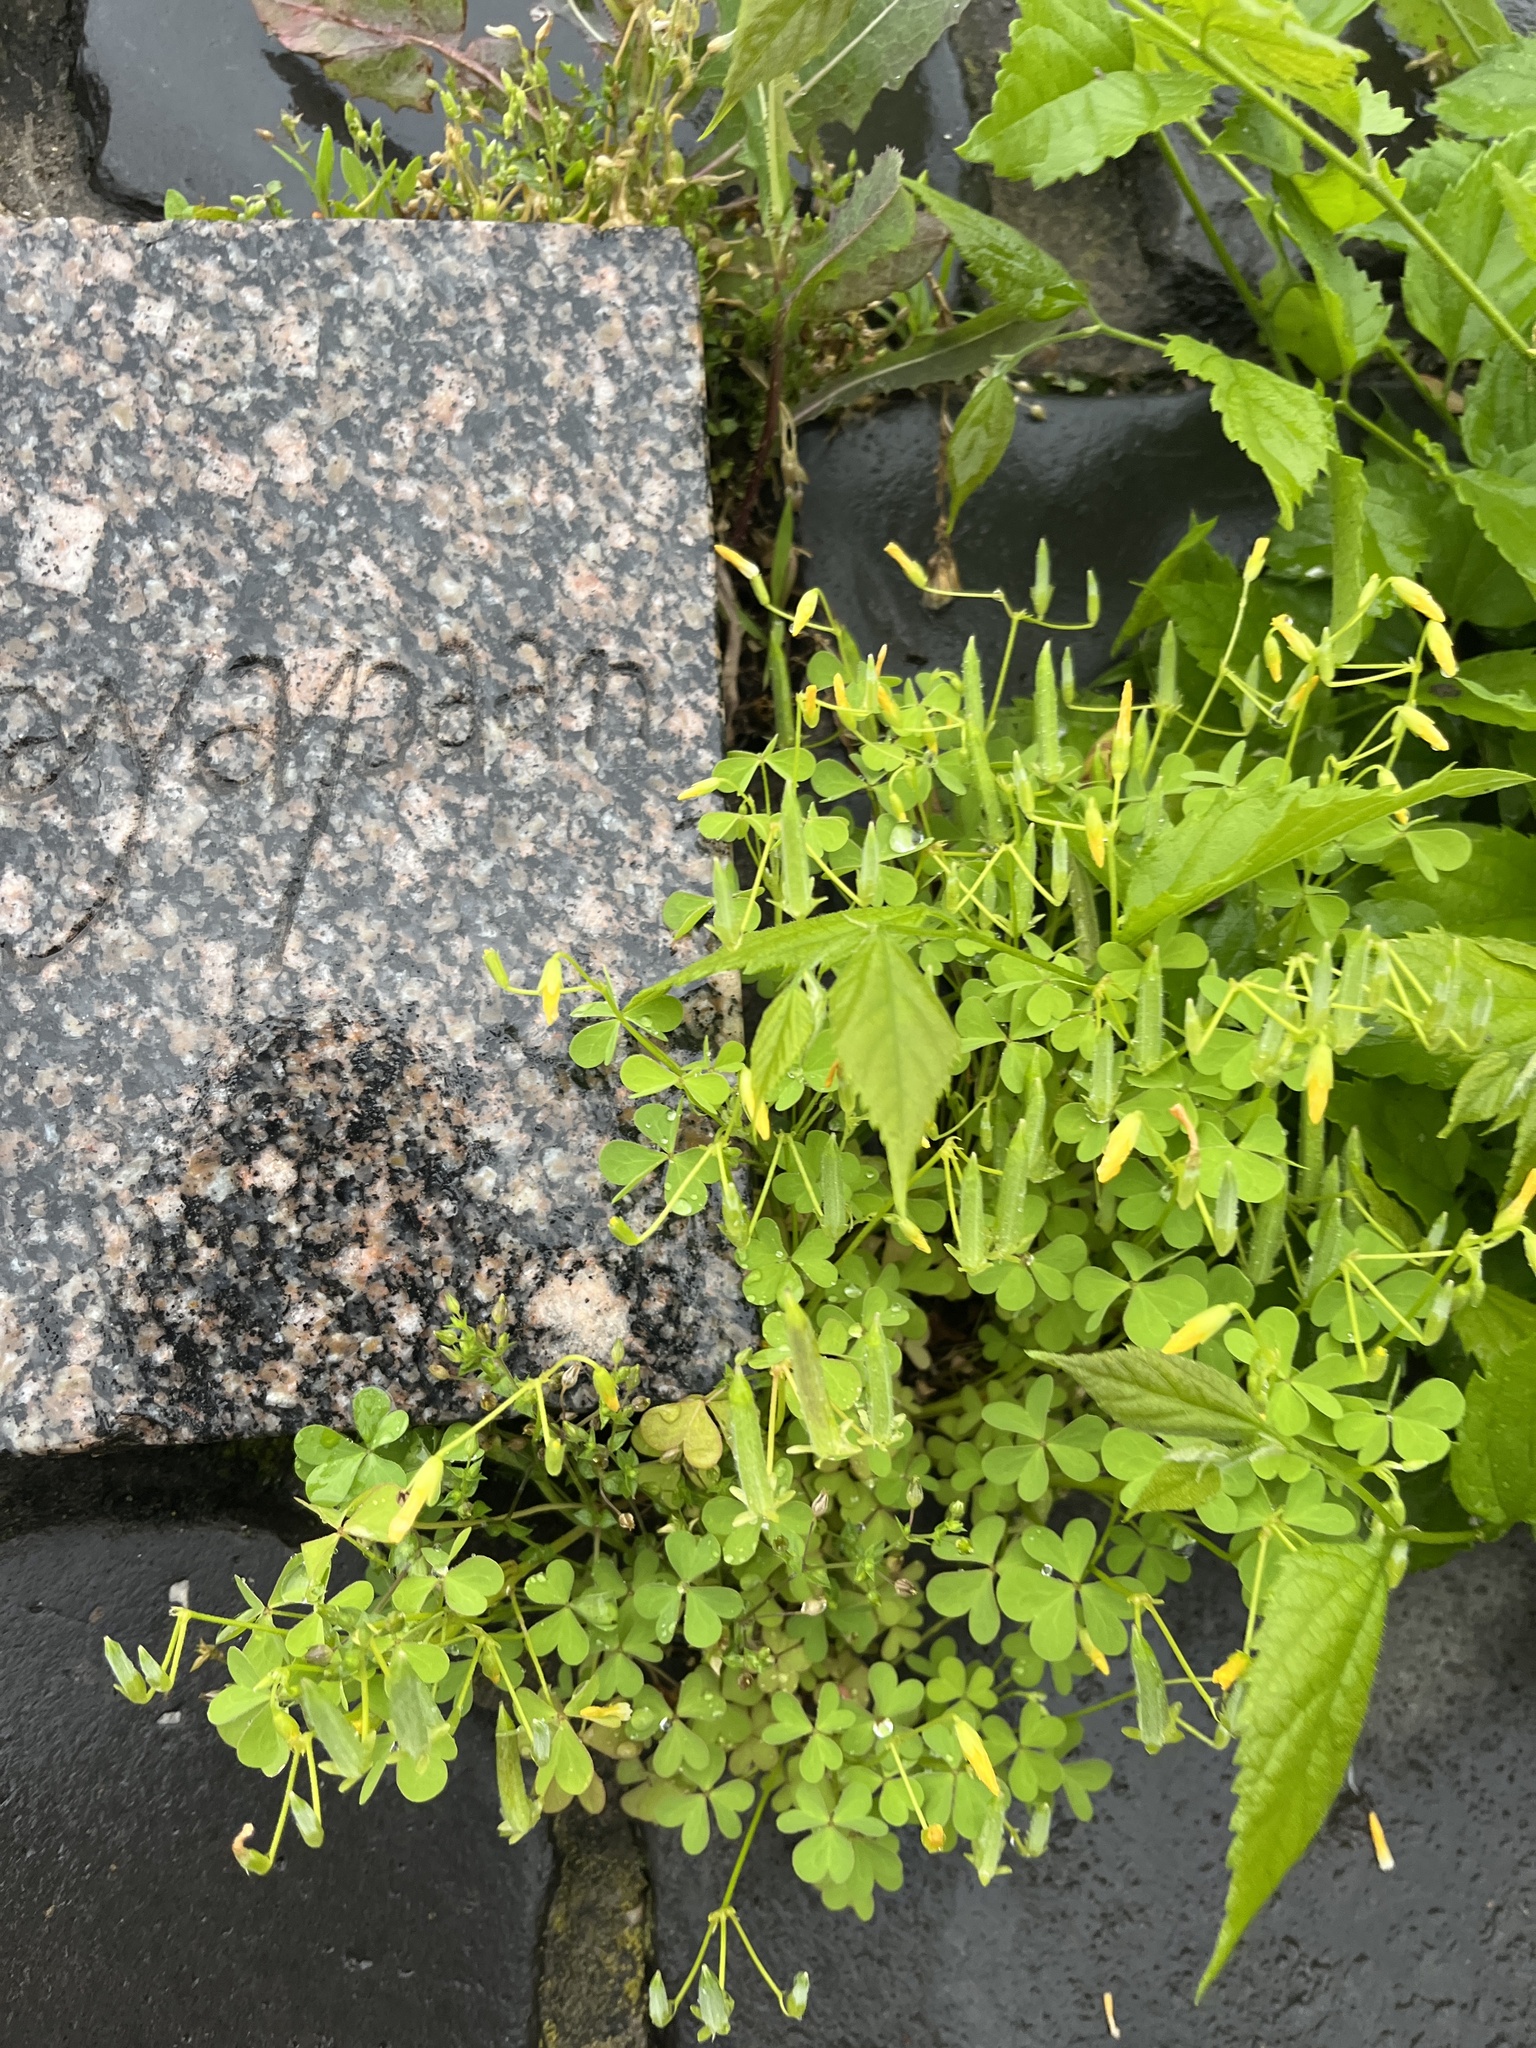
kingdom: Plantae
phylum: Tracheophyta
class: Magnoliopsida
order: Oxalidales
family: Oxalidaceae
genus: Oxalis
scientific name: Oxalis dillenii
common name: Sussex yellow-sorrel
